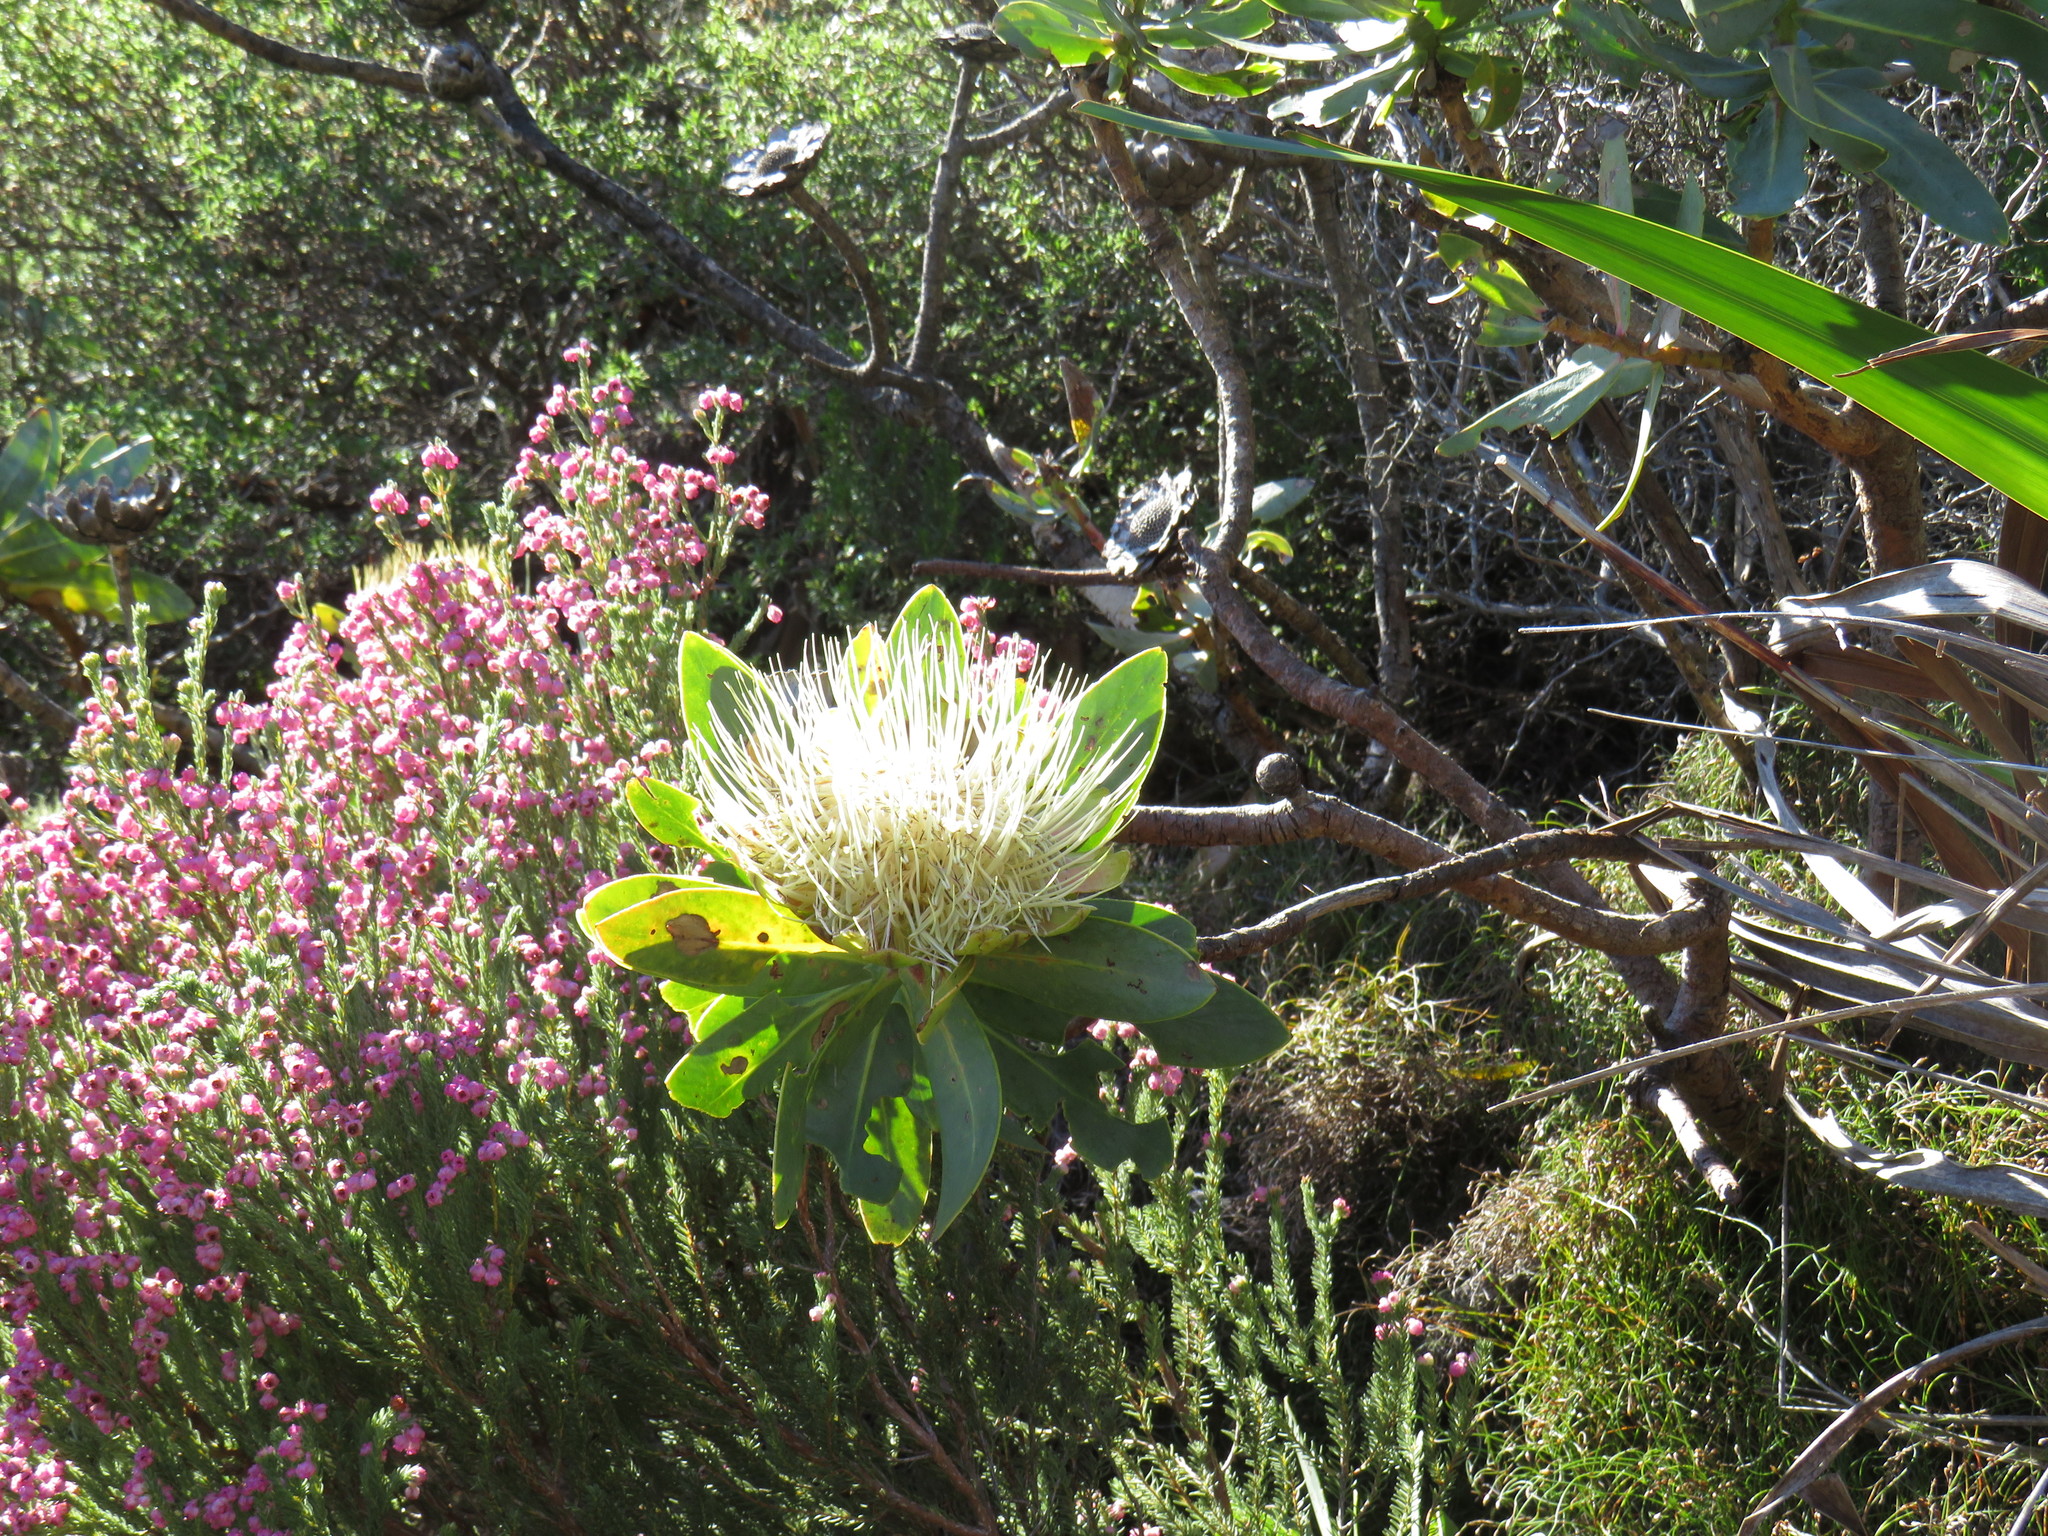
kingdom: Plantae
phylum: Tracheophyta
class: Magnoliopsida
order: Proteales
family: Proteaceae
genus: Protea
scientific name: Protea nitida
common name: Tree protea
